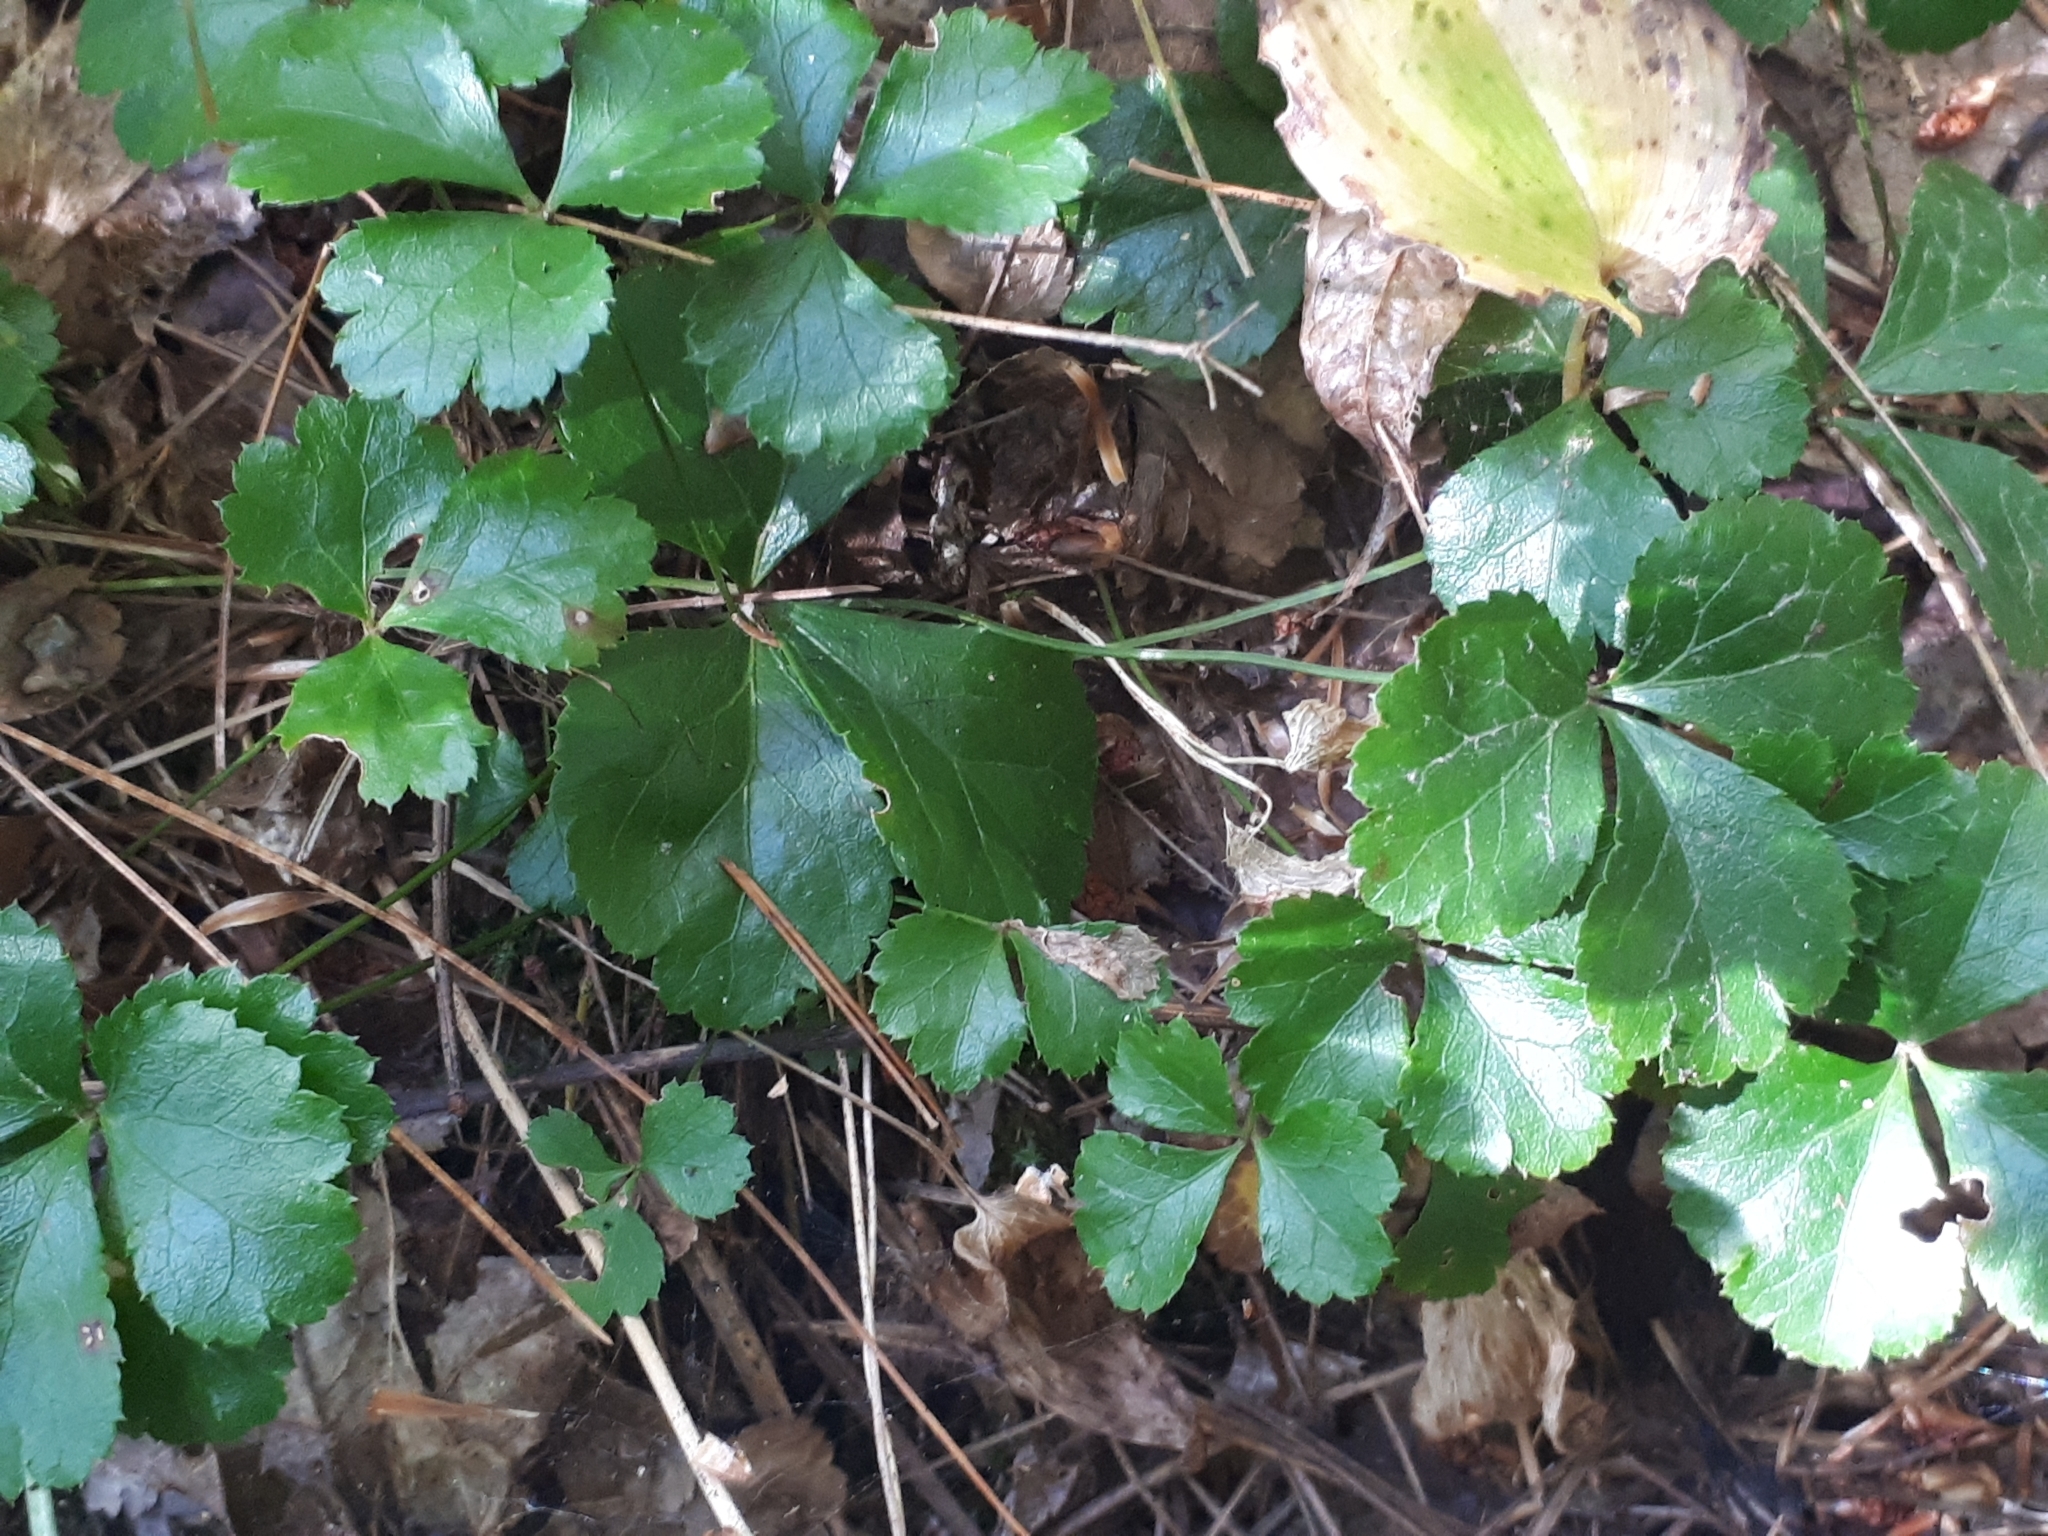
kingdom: Plantae
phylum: Tracheophyta
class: Magnoliopsida
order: Ranunculales
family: Ranunculaceae
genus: Coptis
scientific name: Coptis trifolia
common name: Canker-root
